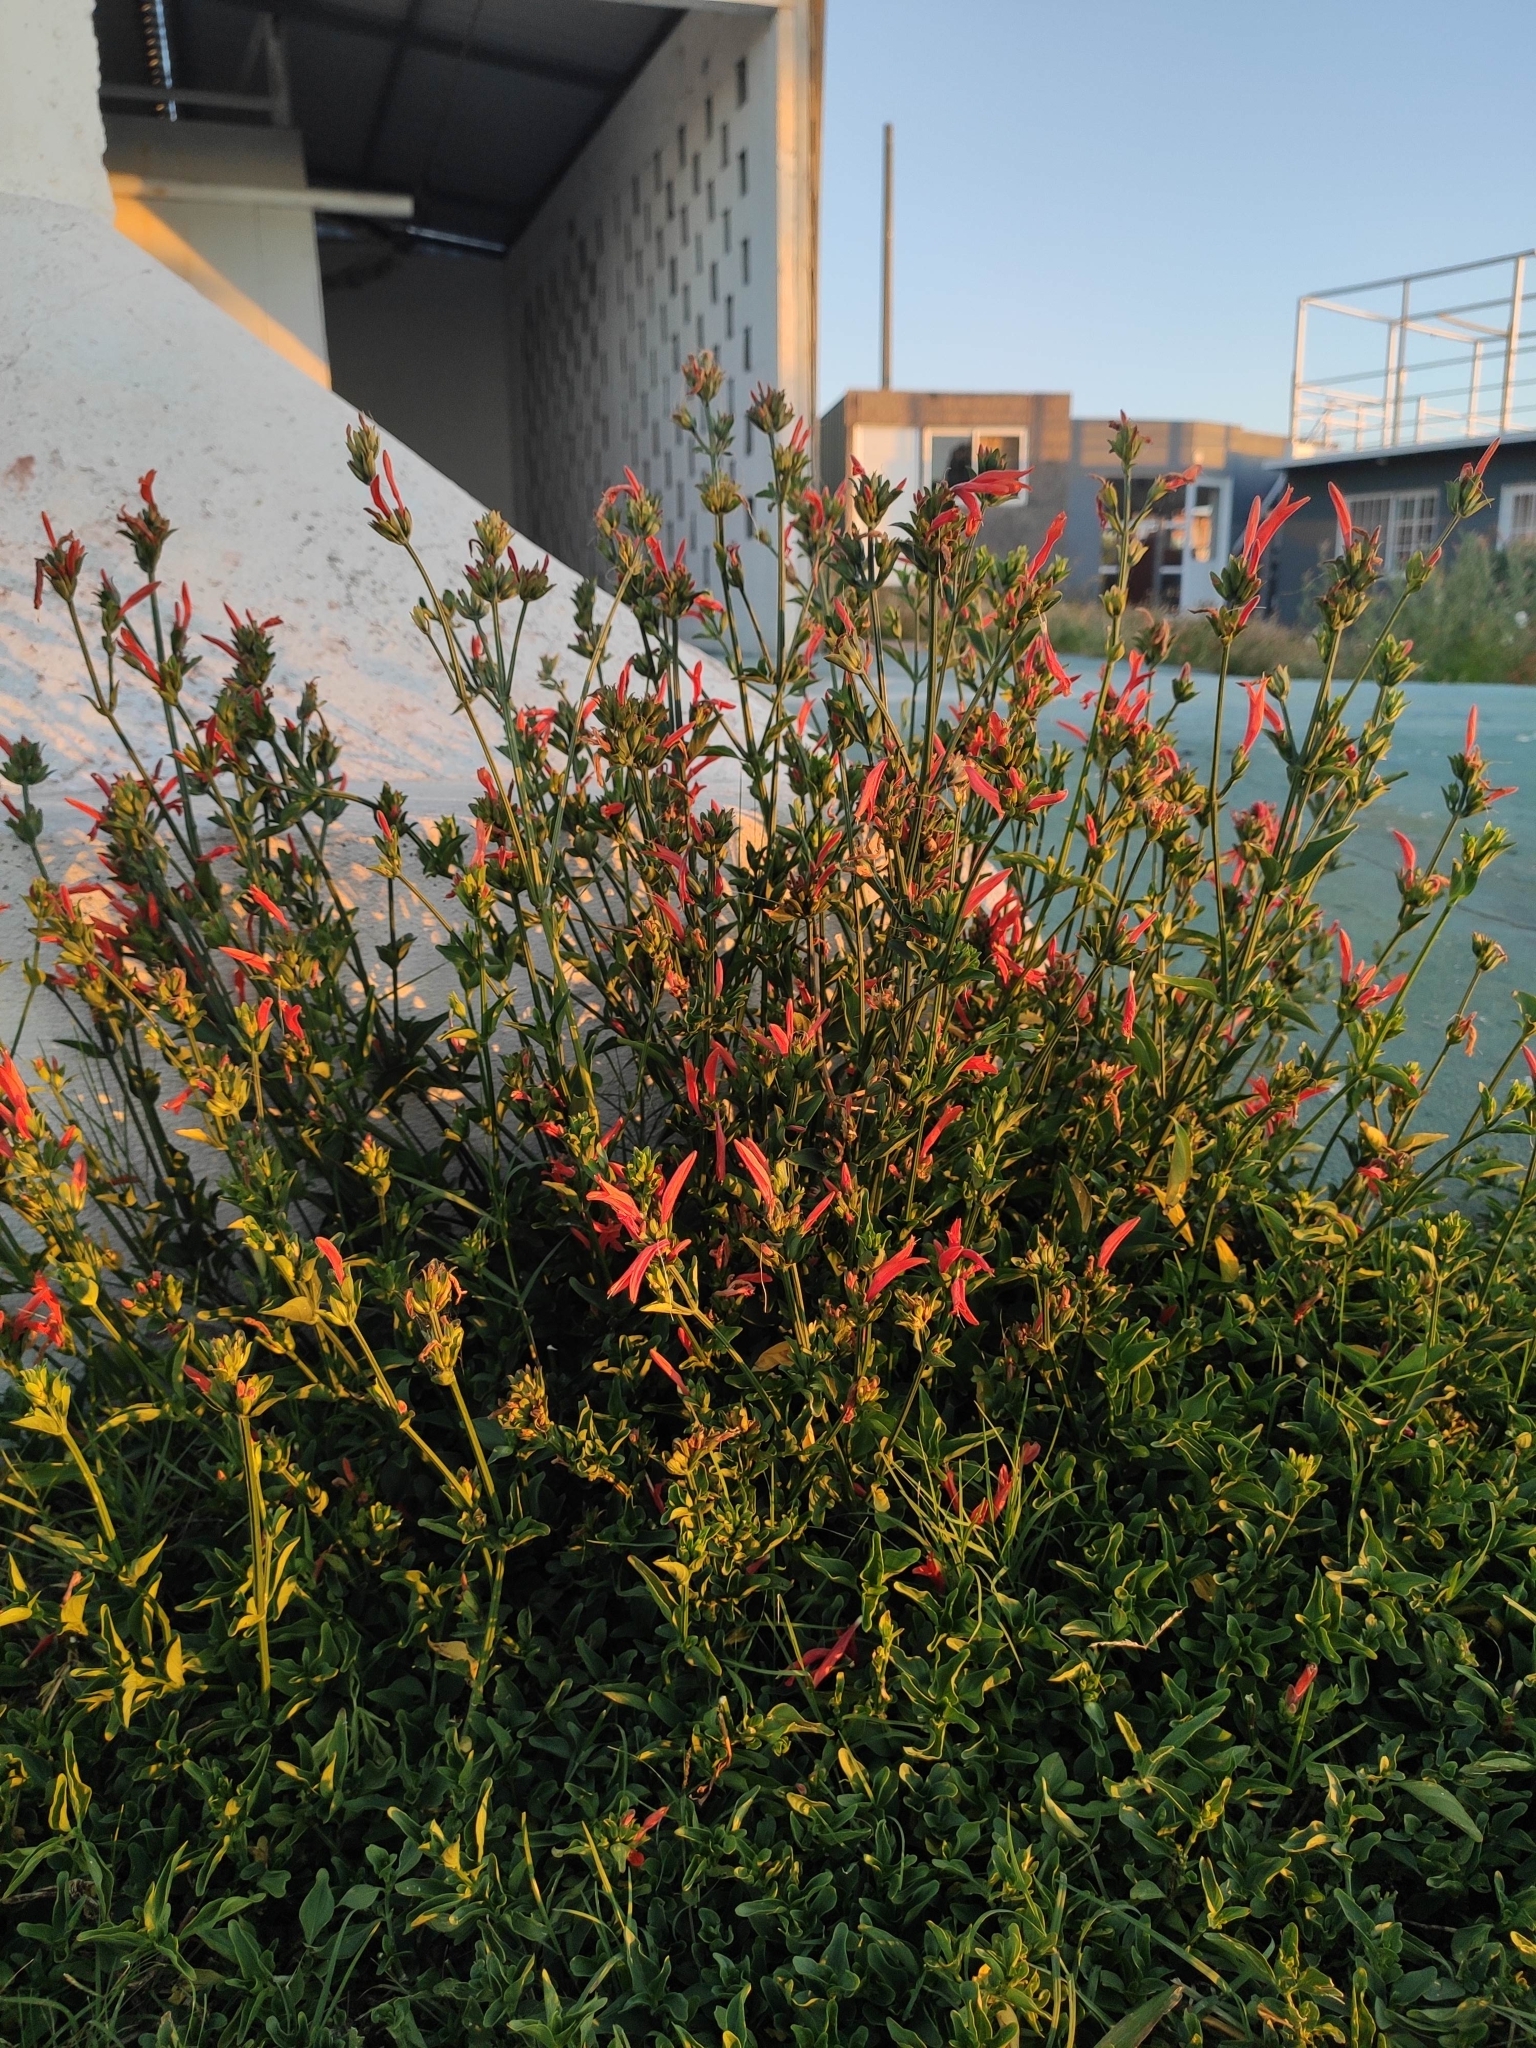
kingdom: Plantae
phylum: Tracheophyta
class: Magnoliopsida
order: Lamiales
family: Acanthaceae
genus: Dicliptera
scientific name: Dicliptera squarrosa
